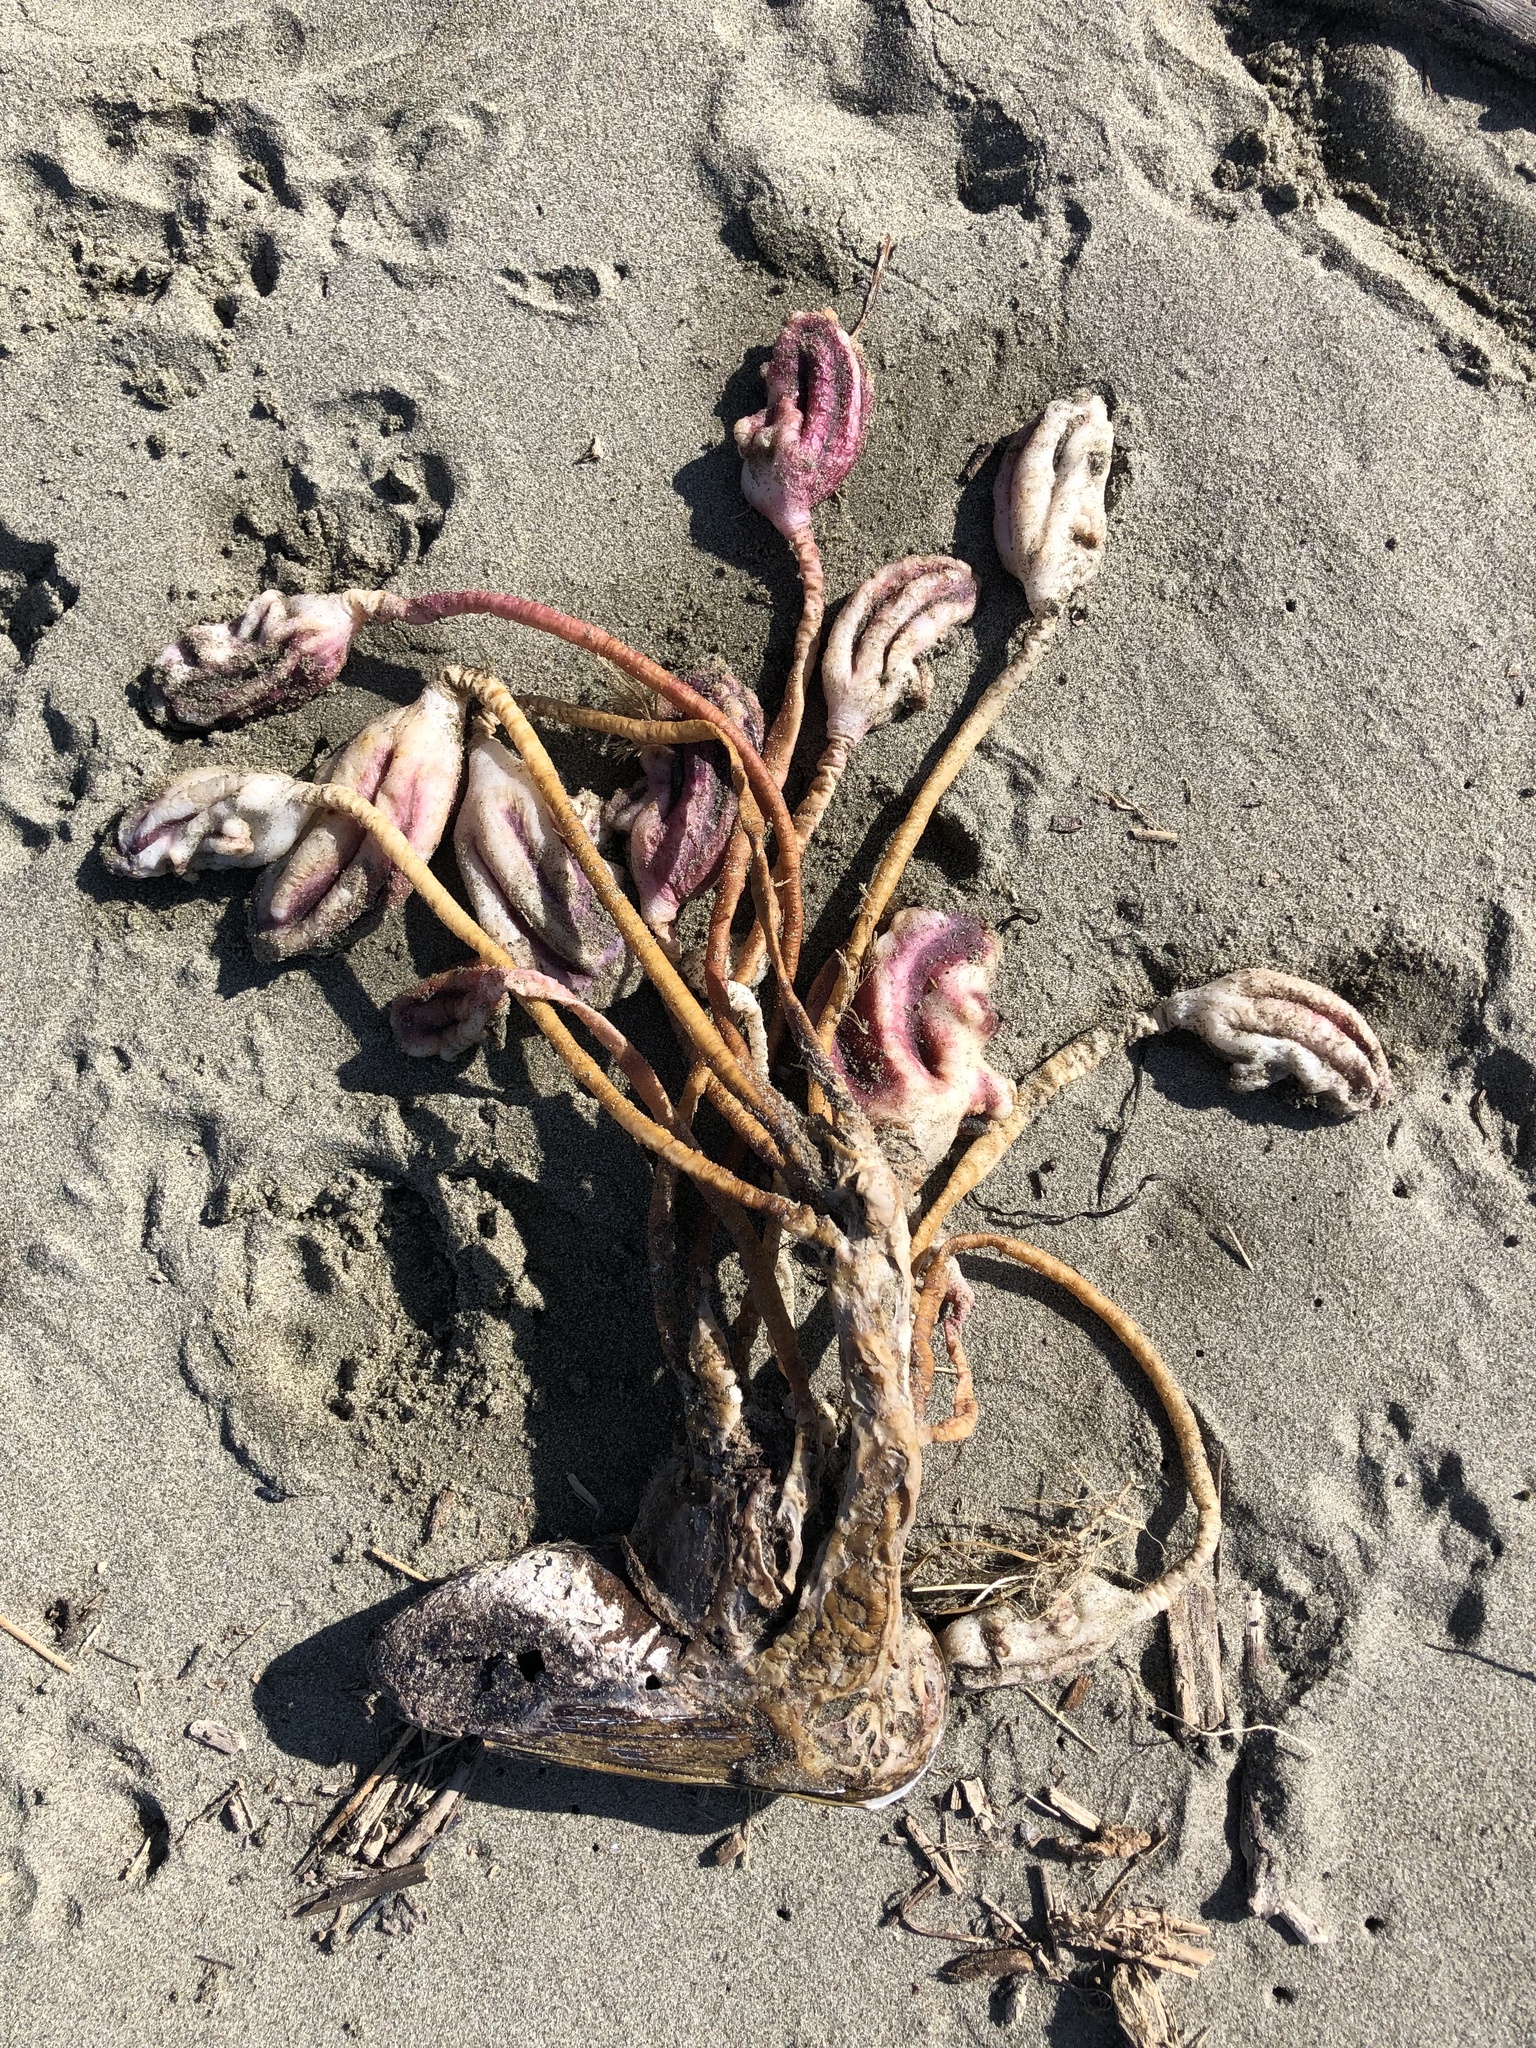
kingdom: Animalia
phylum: Chordata
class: Ascidiacea
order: Stolidobranchia
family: Pyuridae
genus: Pyura
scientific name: Pyura pachydermatina
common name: Sea tulip
